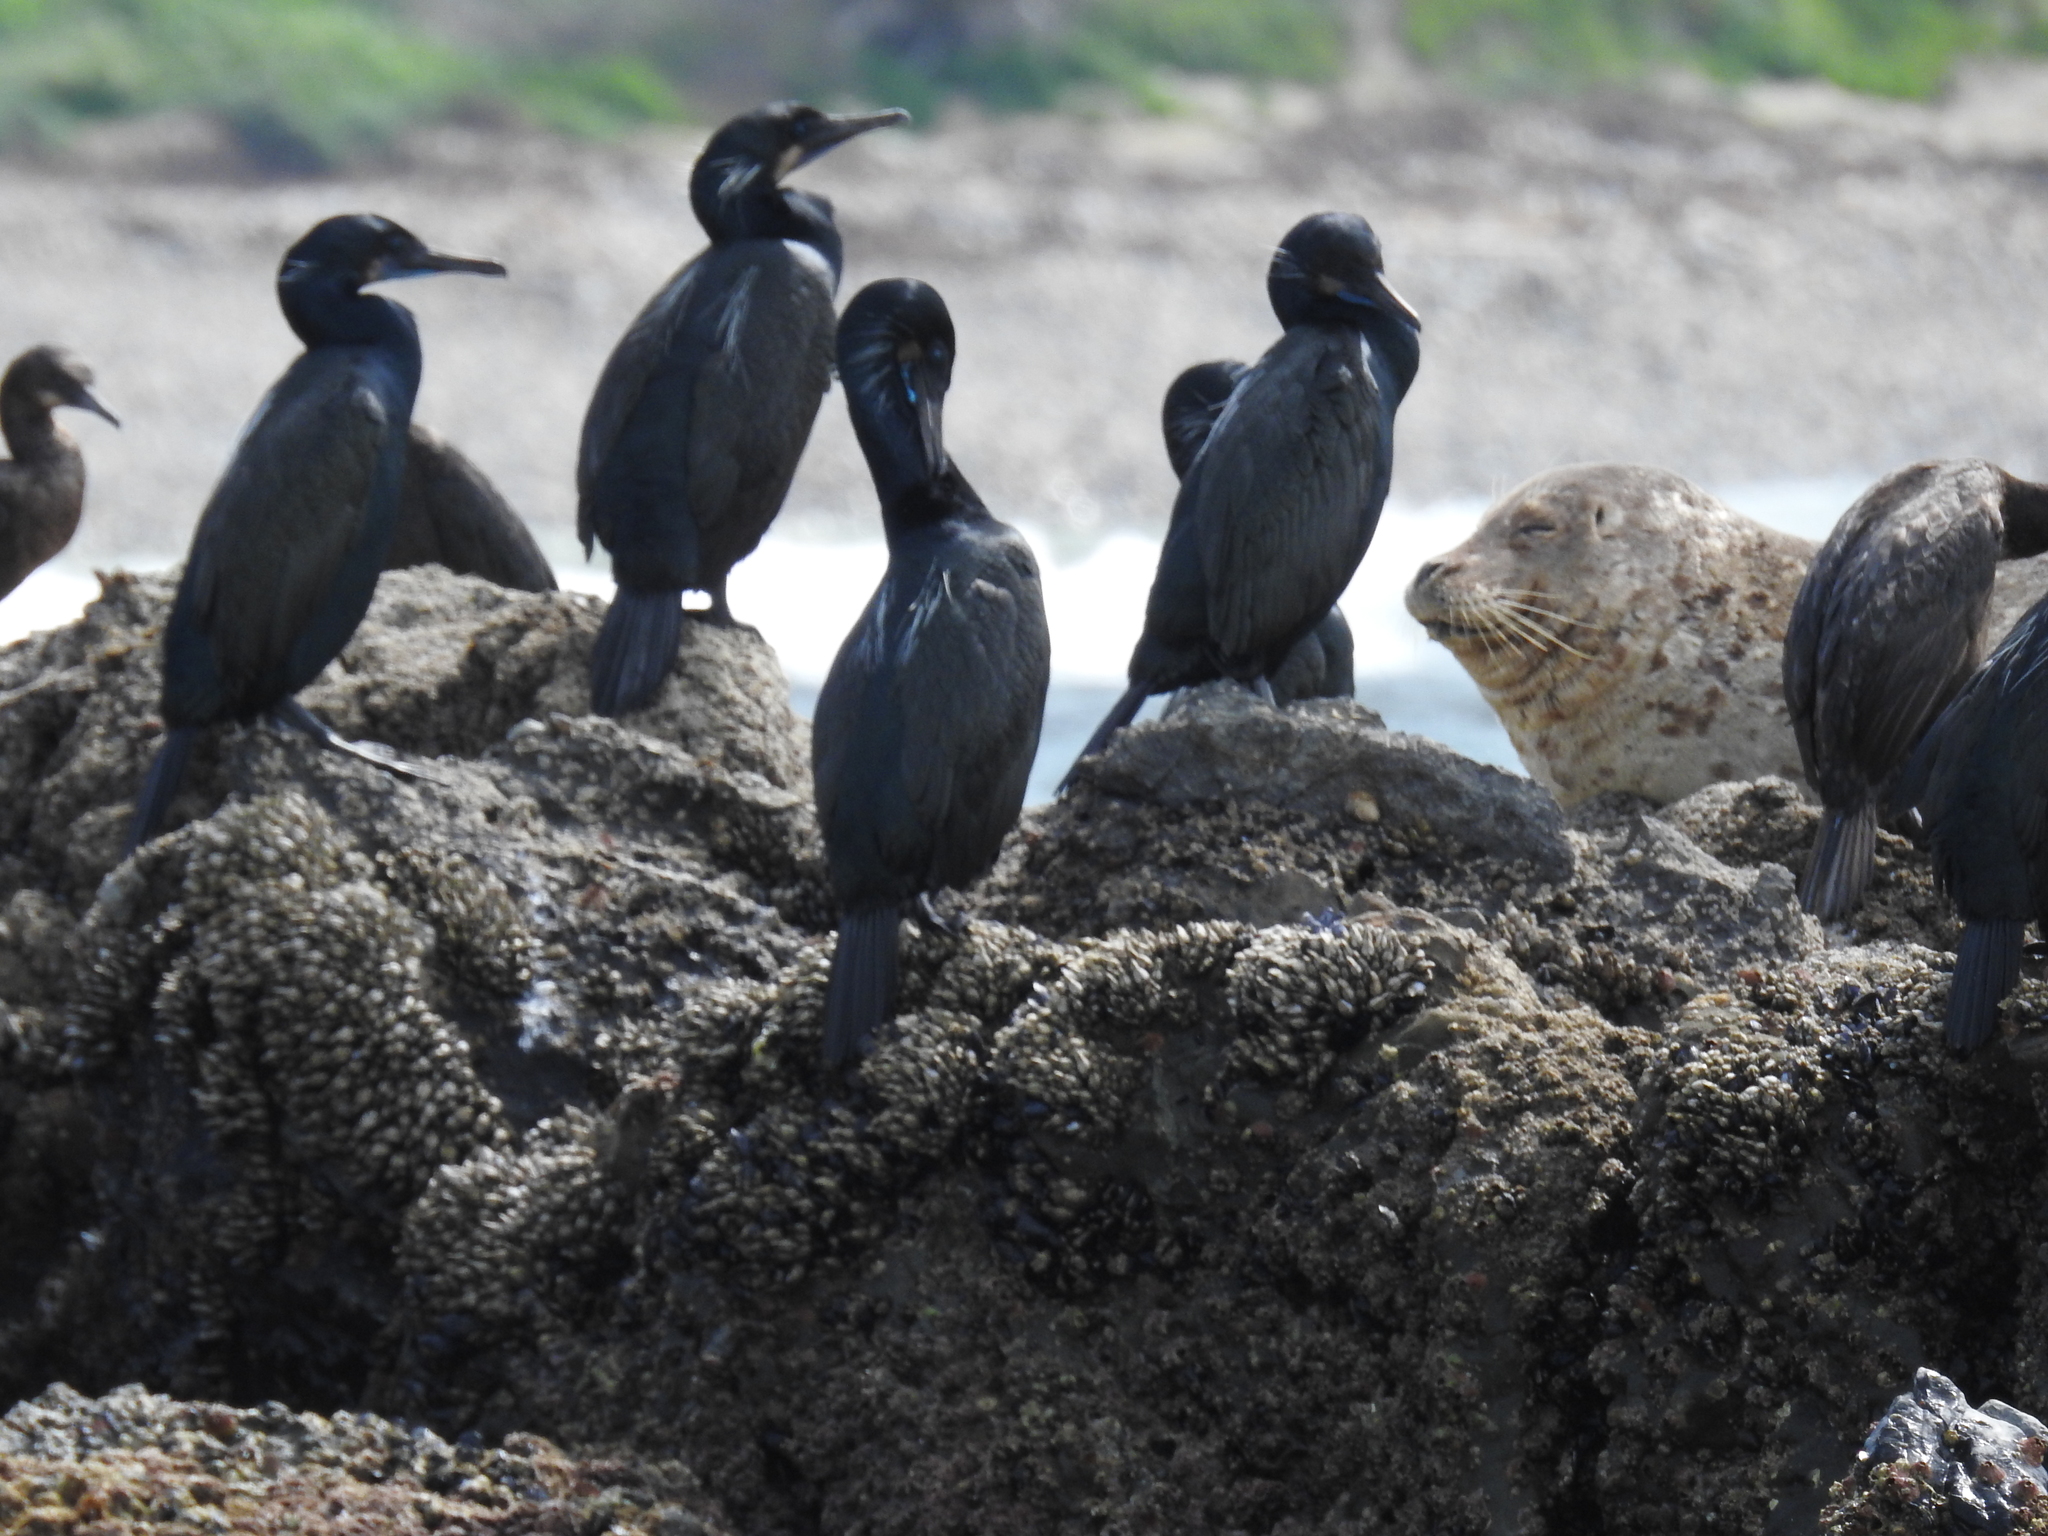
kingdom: Animalia
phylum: Chordata
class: Aves
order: Suliformes
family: Phalacrocoracidae
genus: Urile
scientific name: Urile penicillatus
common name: Brandt's cormorant
